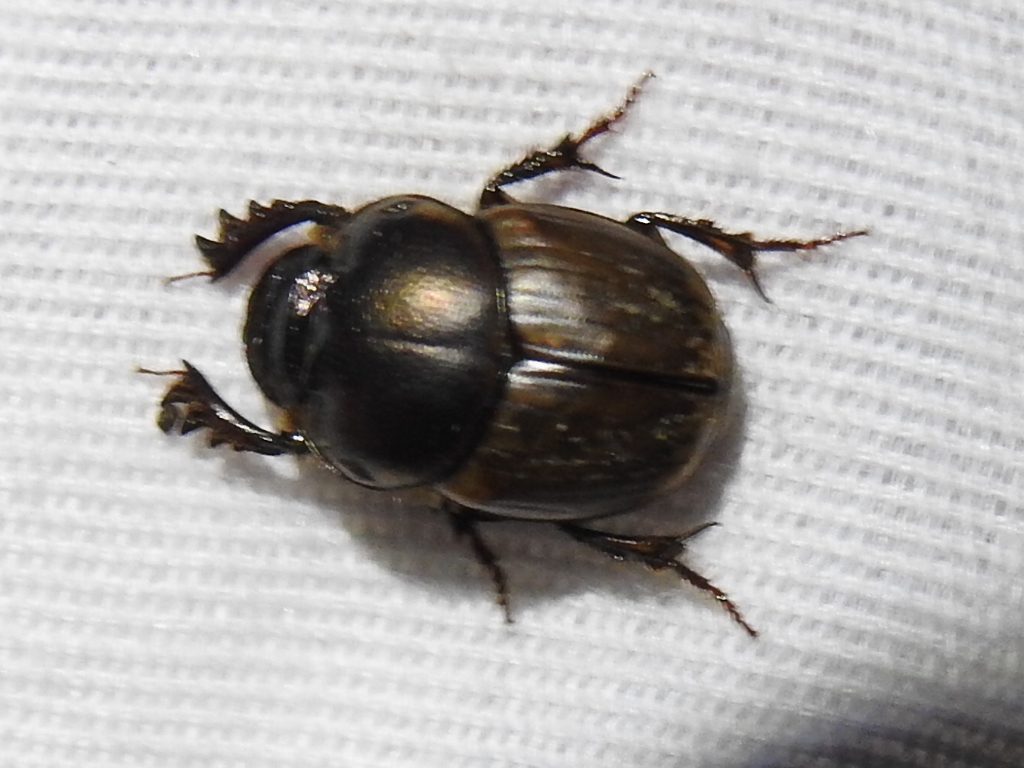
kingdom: Animalia
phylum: Arthropoda
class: Insecta
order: Coleoptera
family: Scarabaeidae
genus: Digitonthophagus
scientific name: Digitonthophagus gazella
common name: Brown dung beetle
